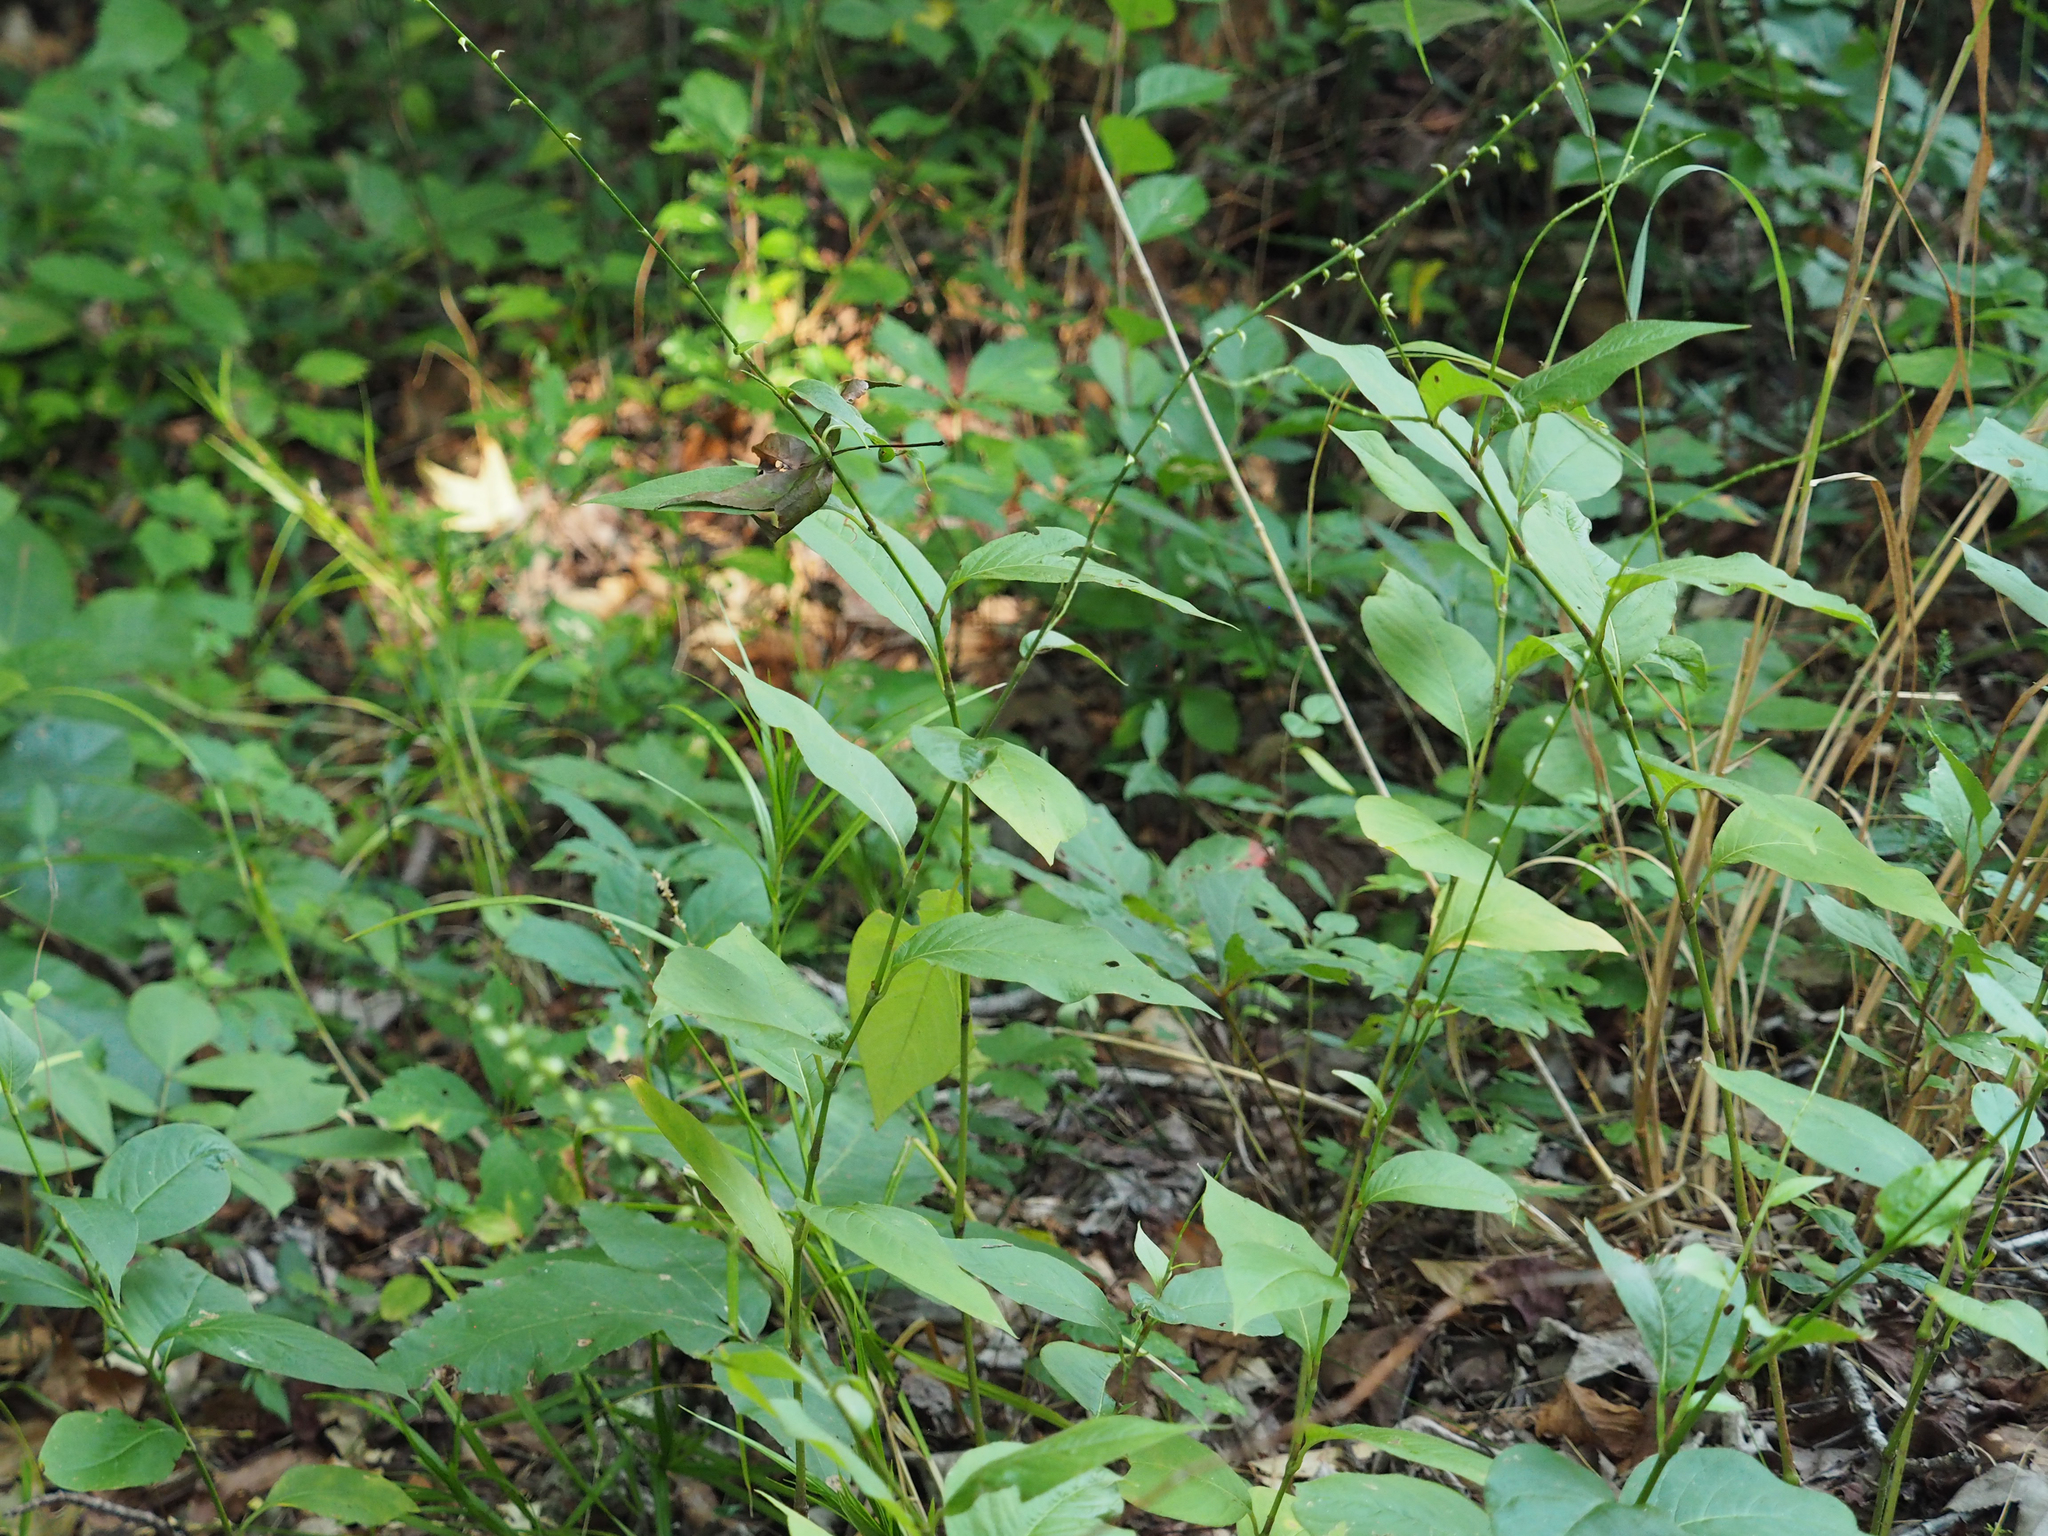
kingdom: Plantae
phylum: Tracheophyta
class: Magnoliopsida
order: Caryophyllales
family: Polygonaceae
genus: Persicaria
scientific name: Persicaria virginiana
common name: Jumpseed
